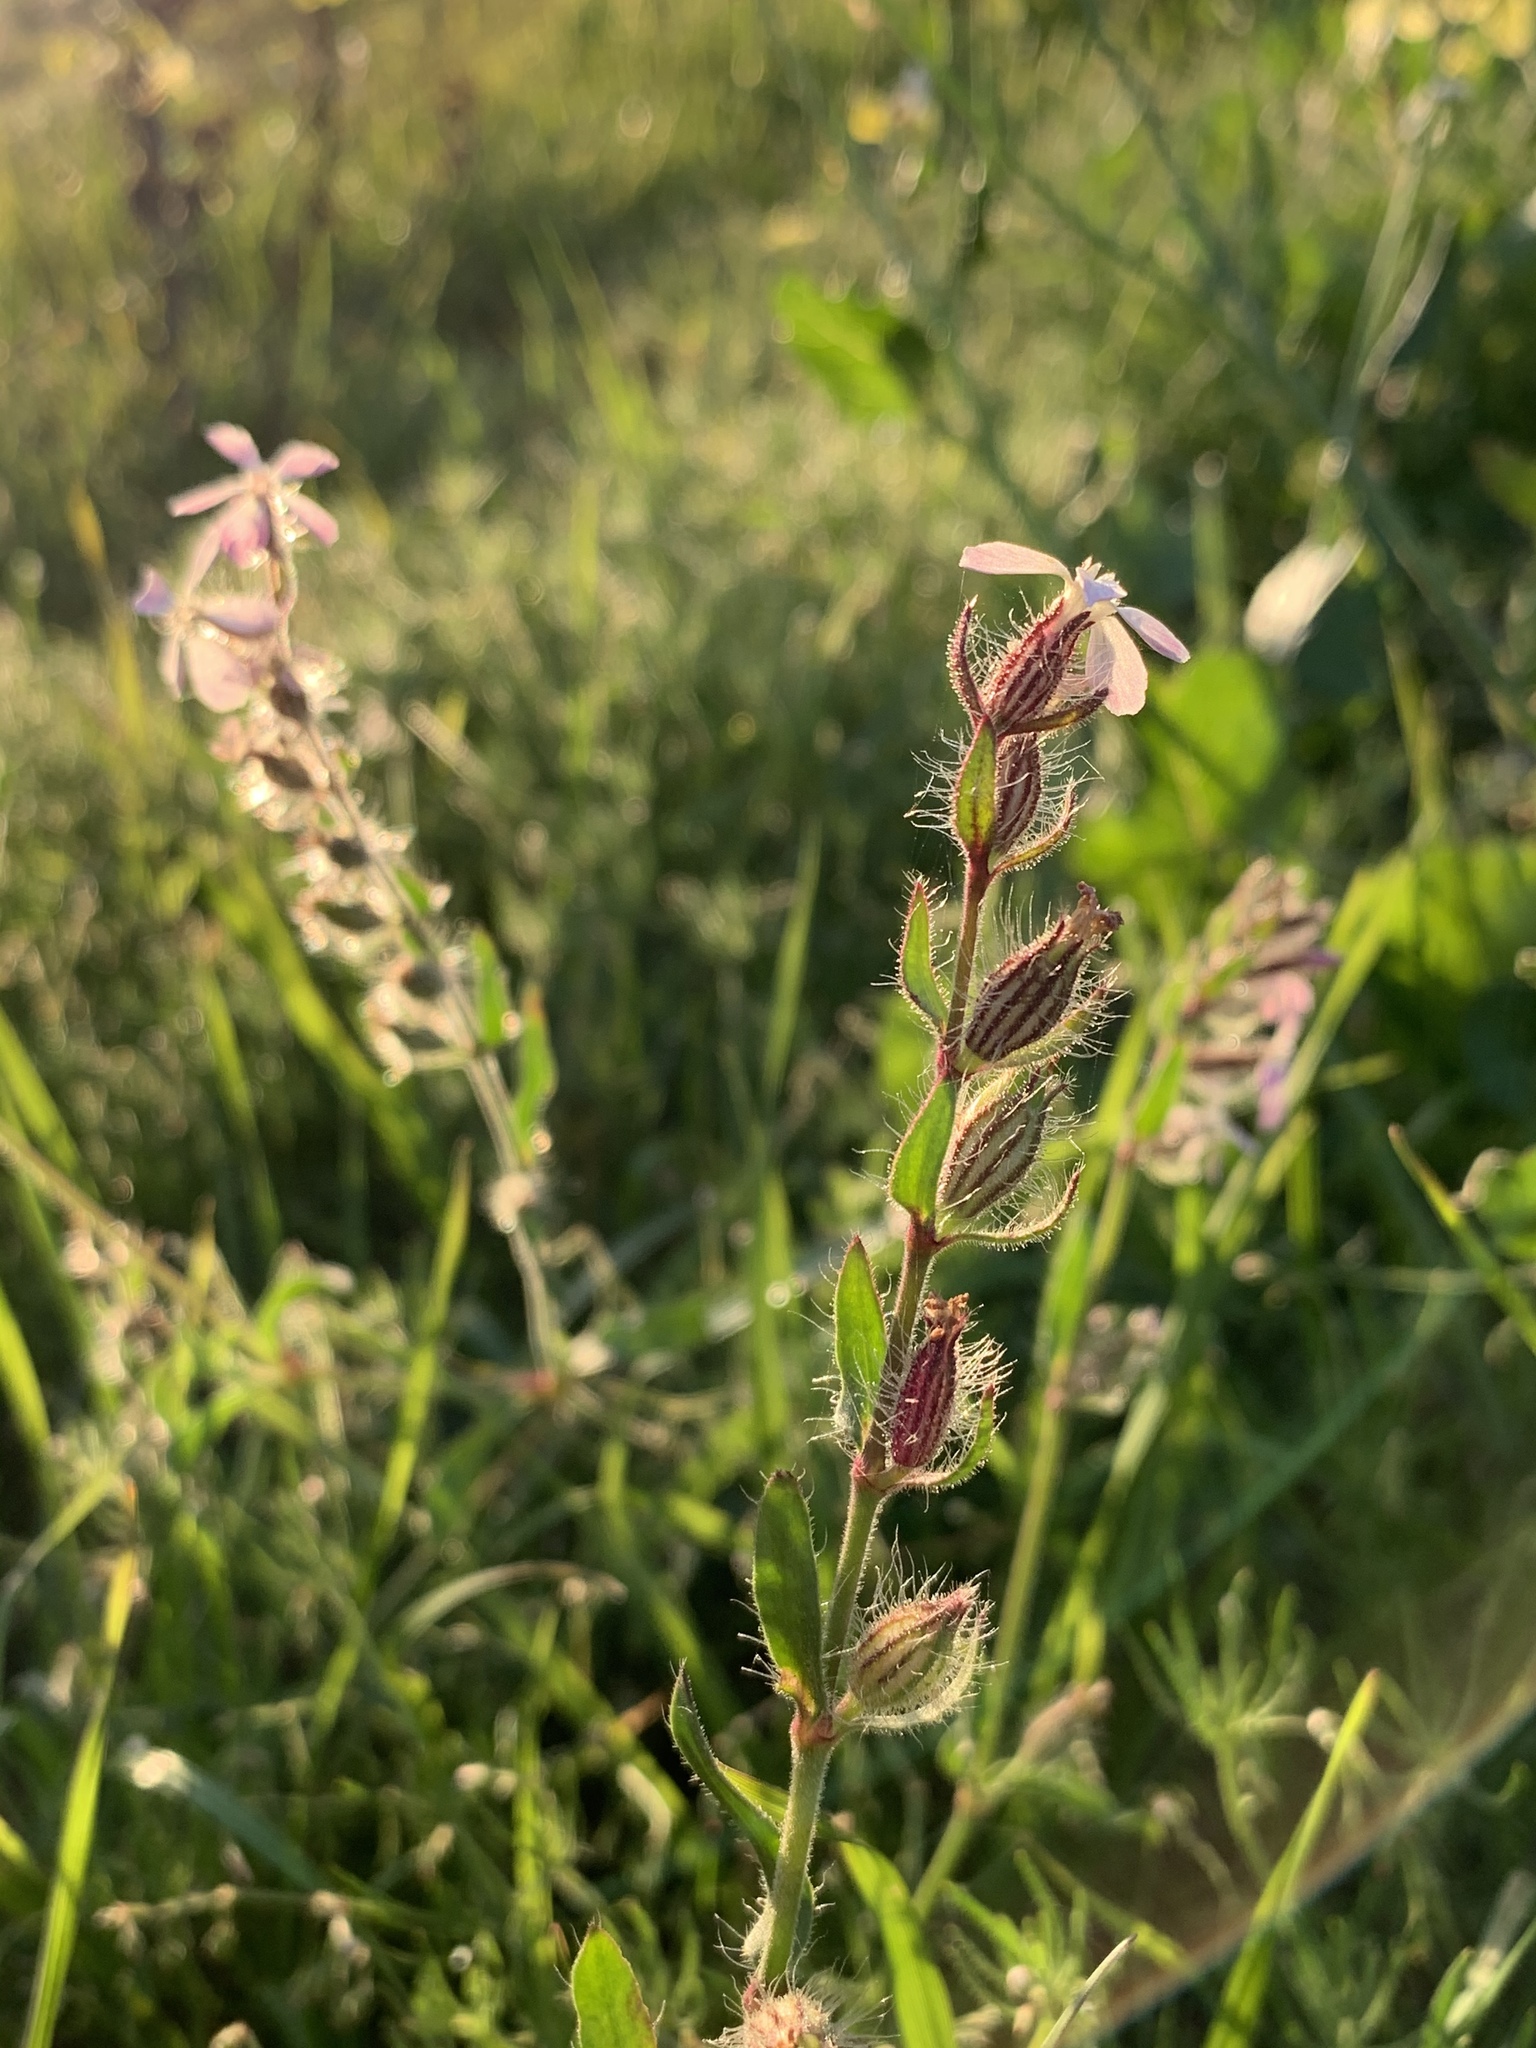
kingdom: Plantae
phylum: Tracheophyta
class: Magnoliopsida
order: Caryophyllales
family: Caryophyllaceae
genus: Silene
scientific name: Silene gallica
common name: Small-flowered catchfly
